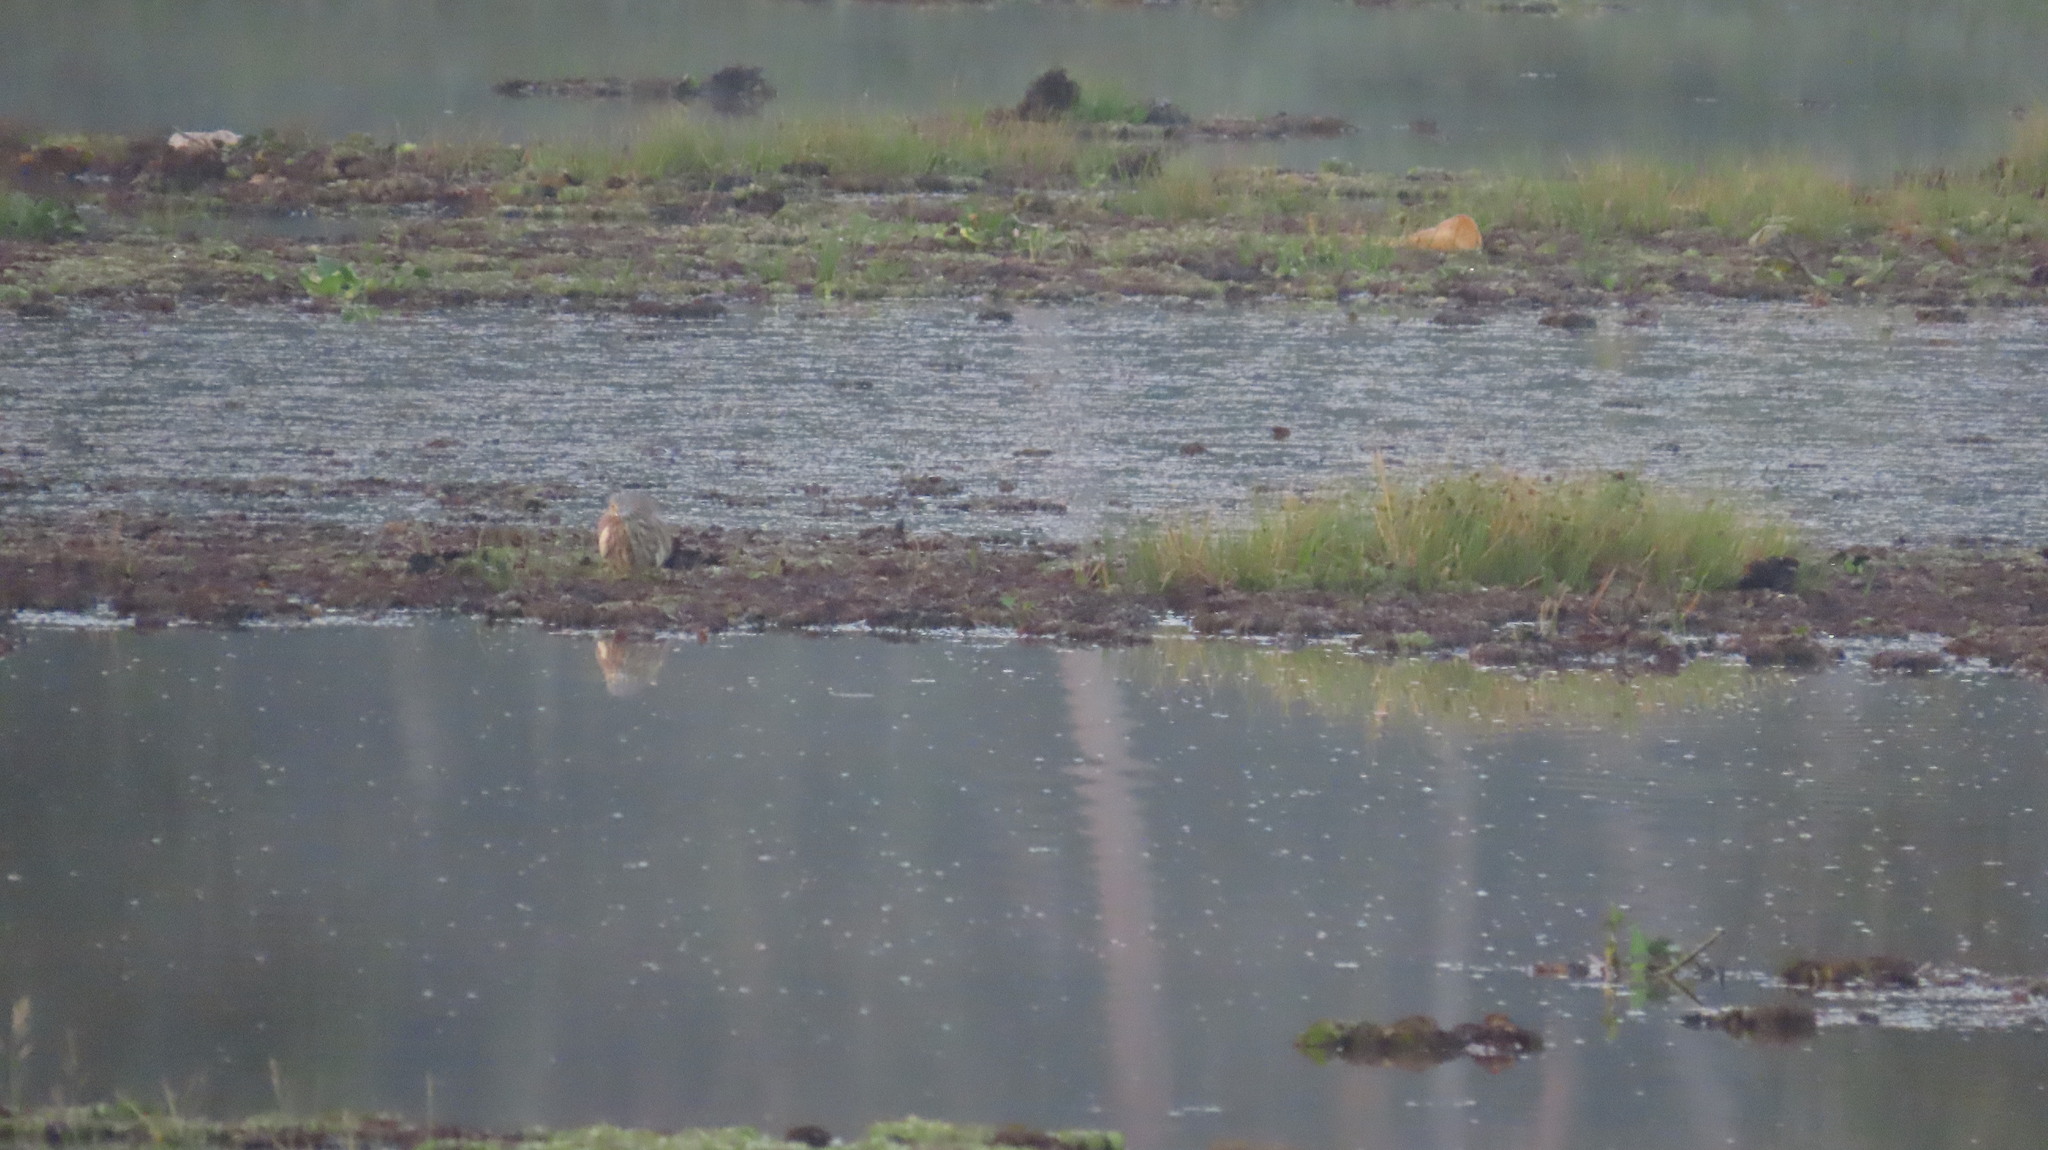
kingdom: Animalia
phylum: Chordata
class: Aves
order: Pelecaniformes
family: Ardeidae
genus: Ardeola
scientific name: Ardeola grayii
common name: Indian pond heron
